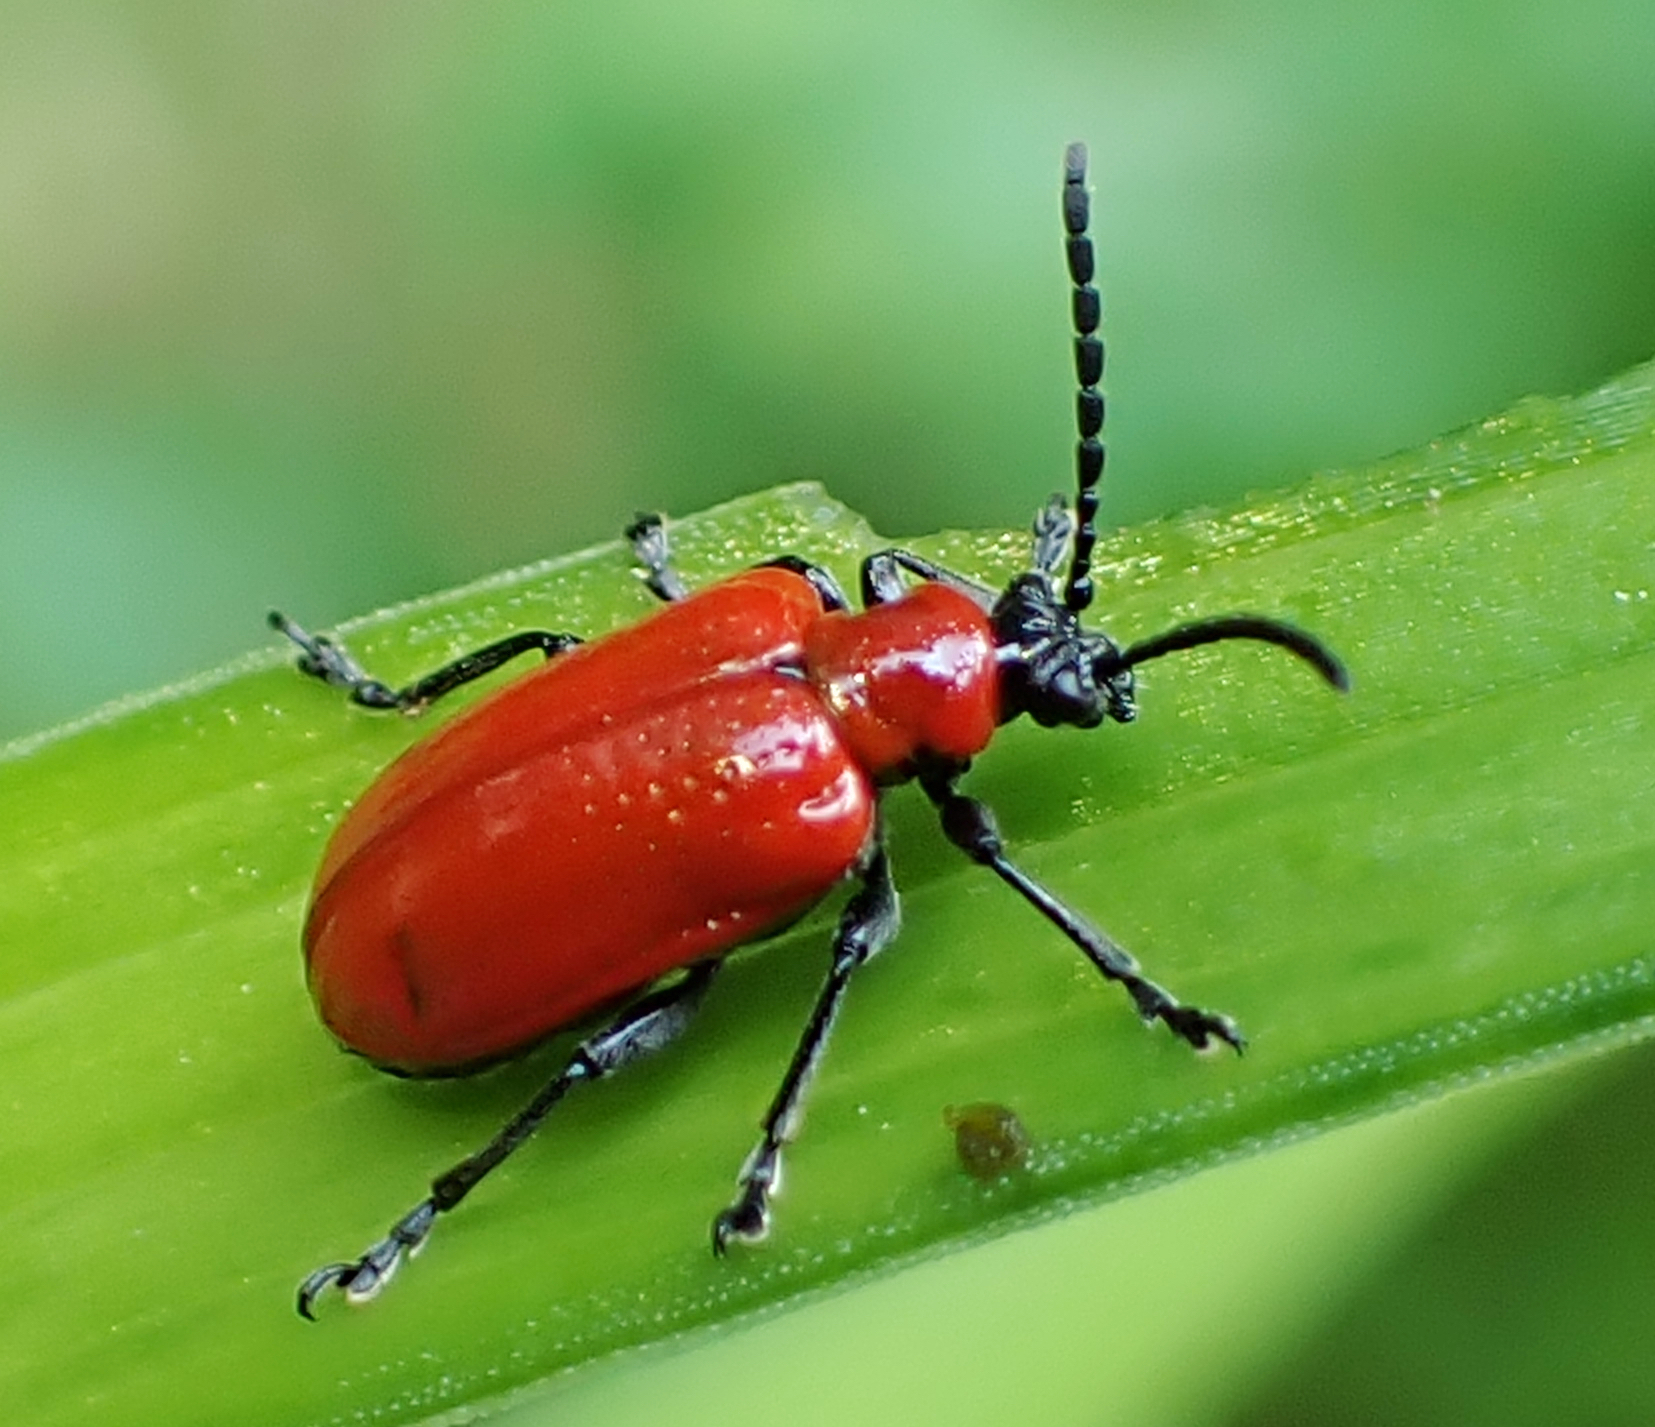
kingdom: Animalia
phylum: Arthropoda
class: Insecta
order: Coleoptera
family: Chrysomelidae
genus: Lilioceris
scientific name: Lilioceris lilii
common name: Lily beetle
